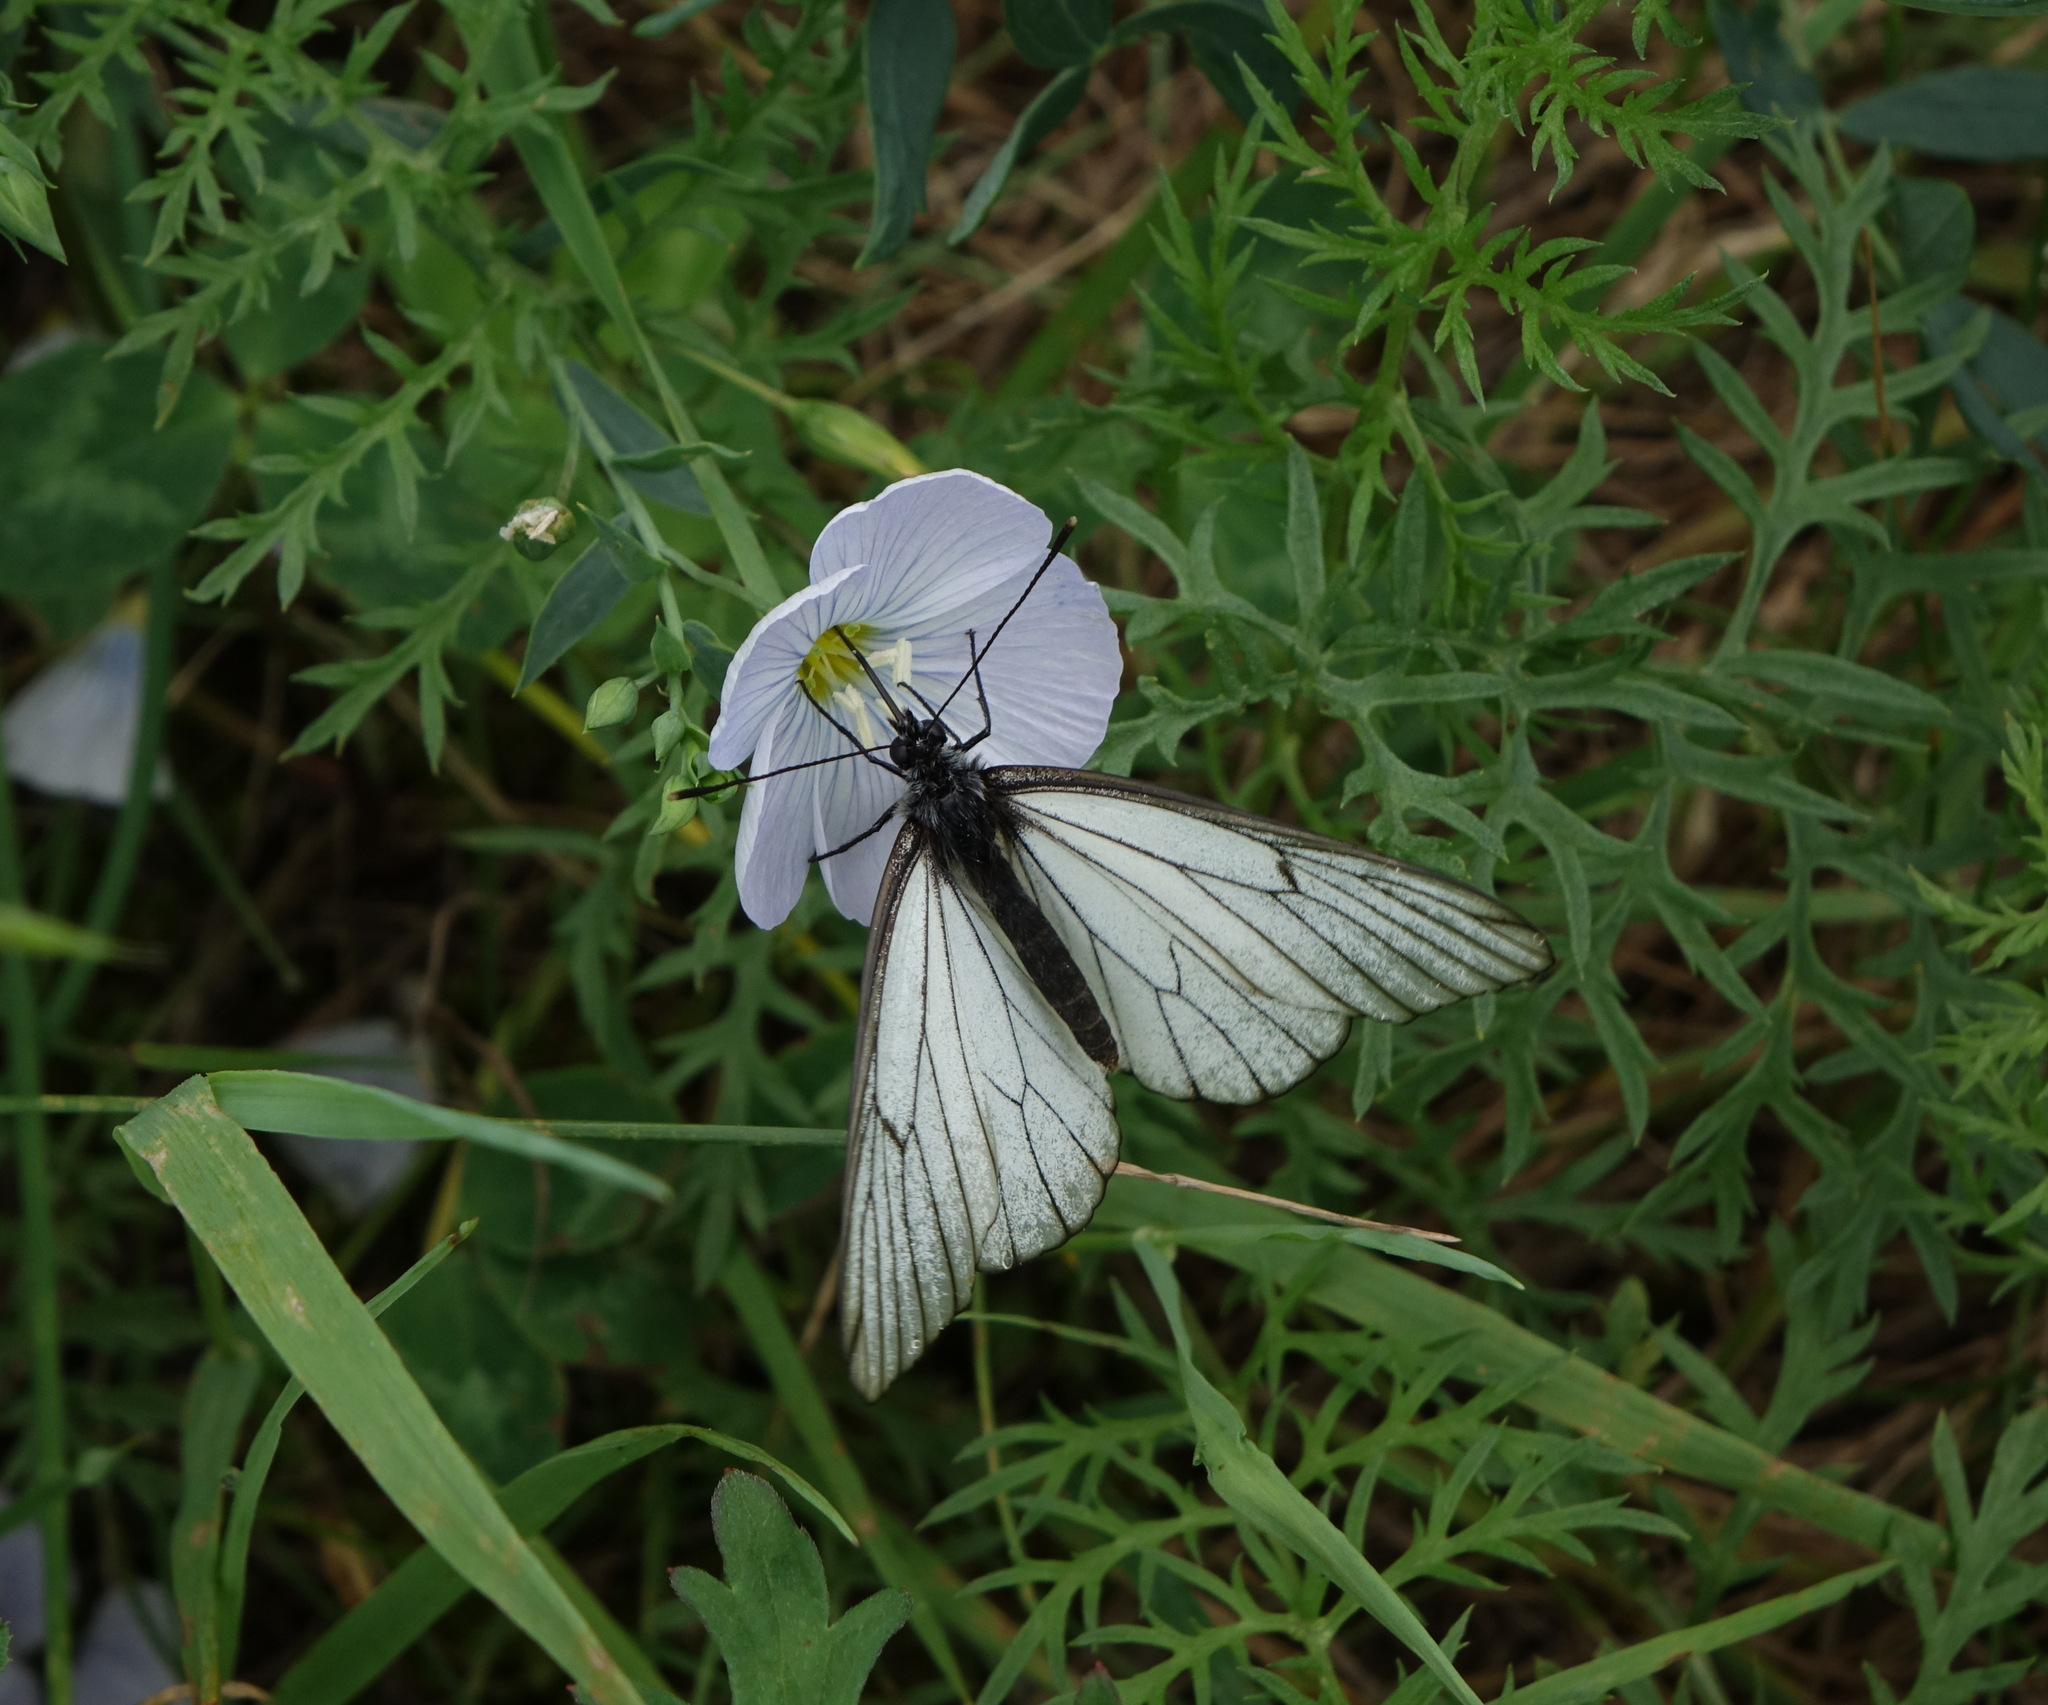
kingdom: Animalia
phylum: Arthropoda
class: Insecta
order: Lepidoptera
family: Pieridae
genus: Aporia
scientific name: Aporia crataegi
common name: Black-veined white
